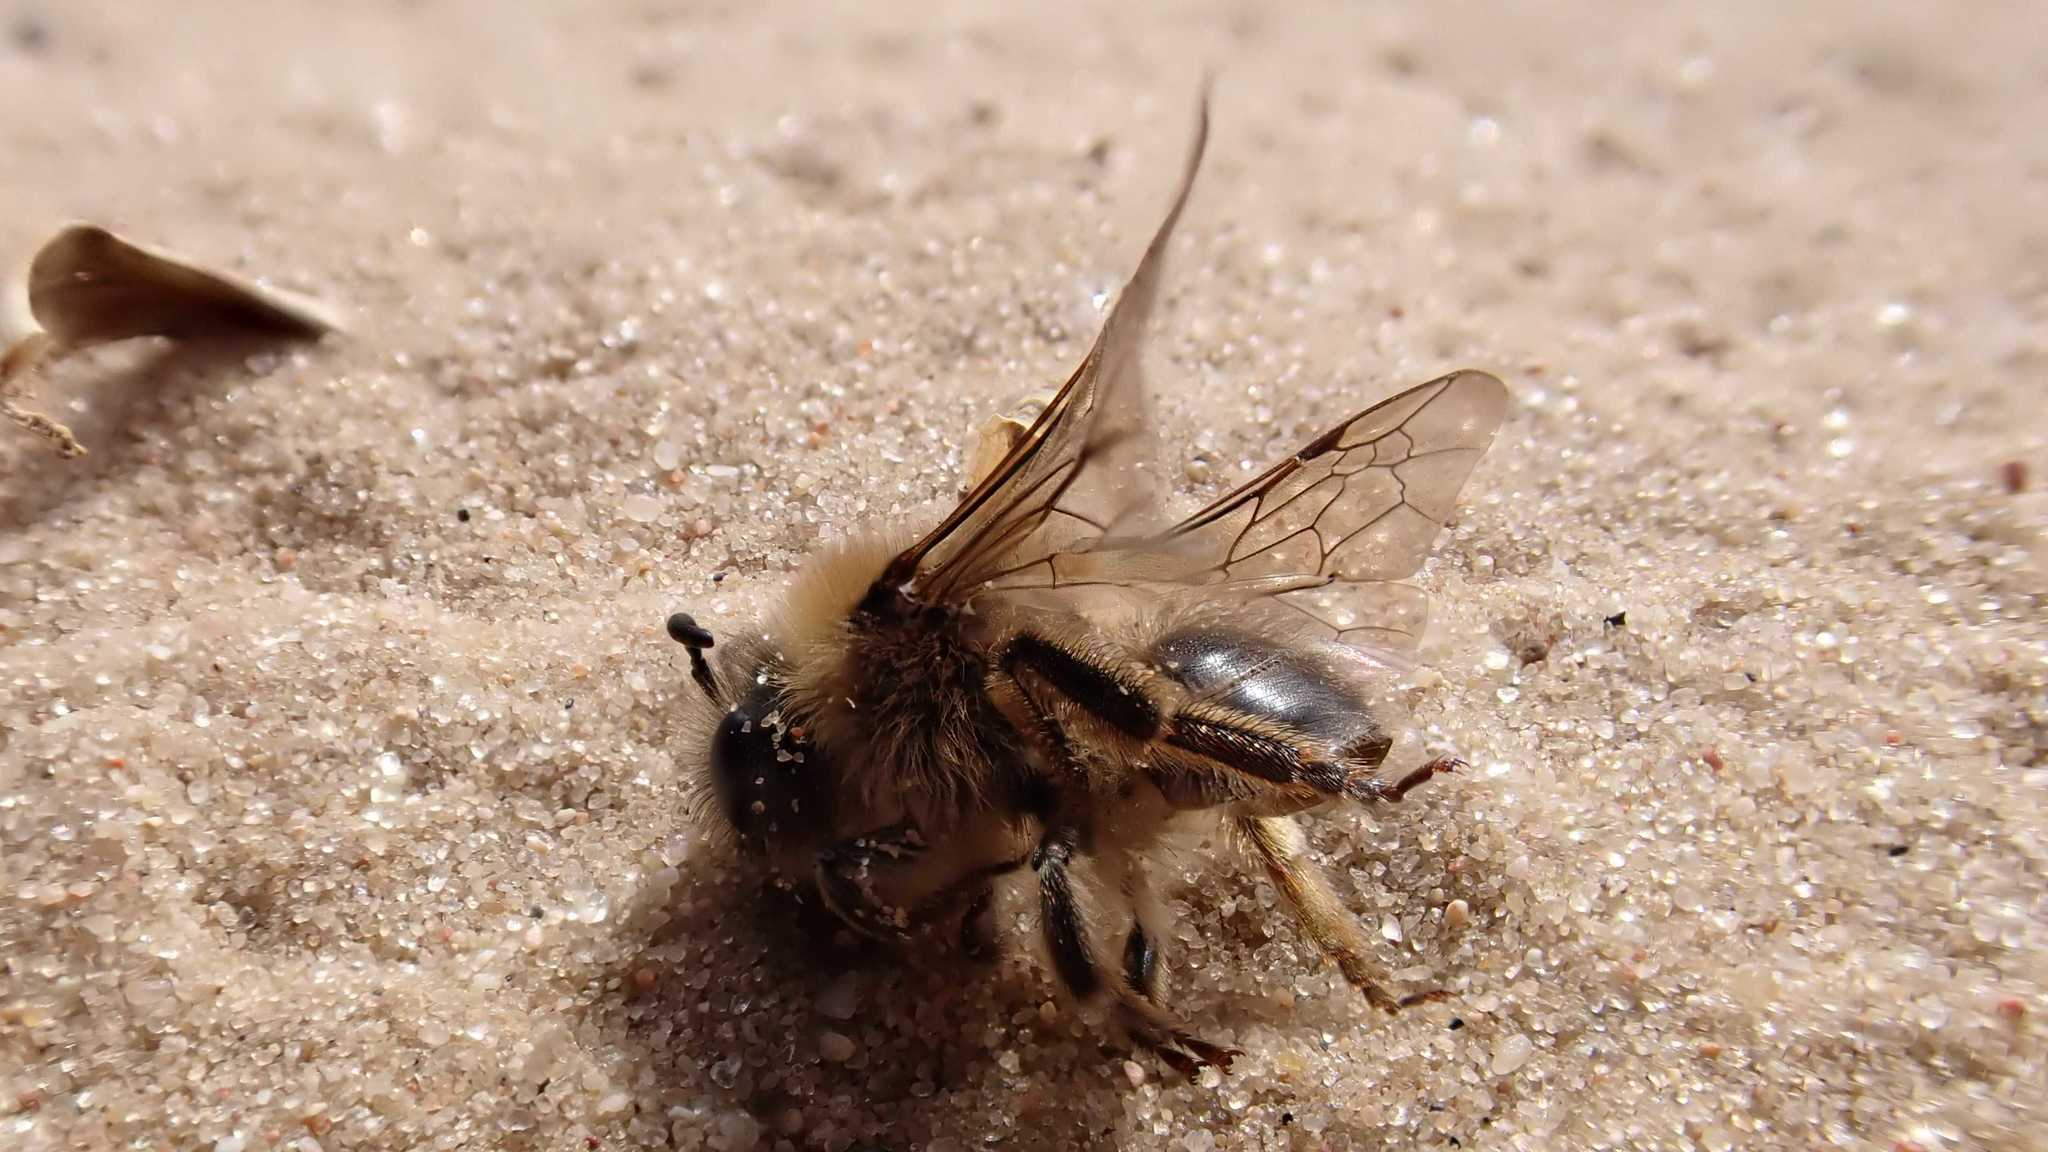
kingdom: Animalia
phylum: Arthropoda
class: Insecta
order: Hymenoptera
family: Colletidae
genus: Colletes
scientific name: Colletes cunicularius
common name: Early colletes
